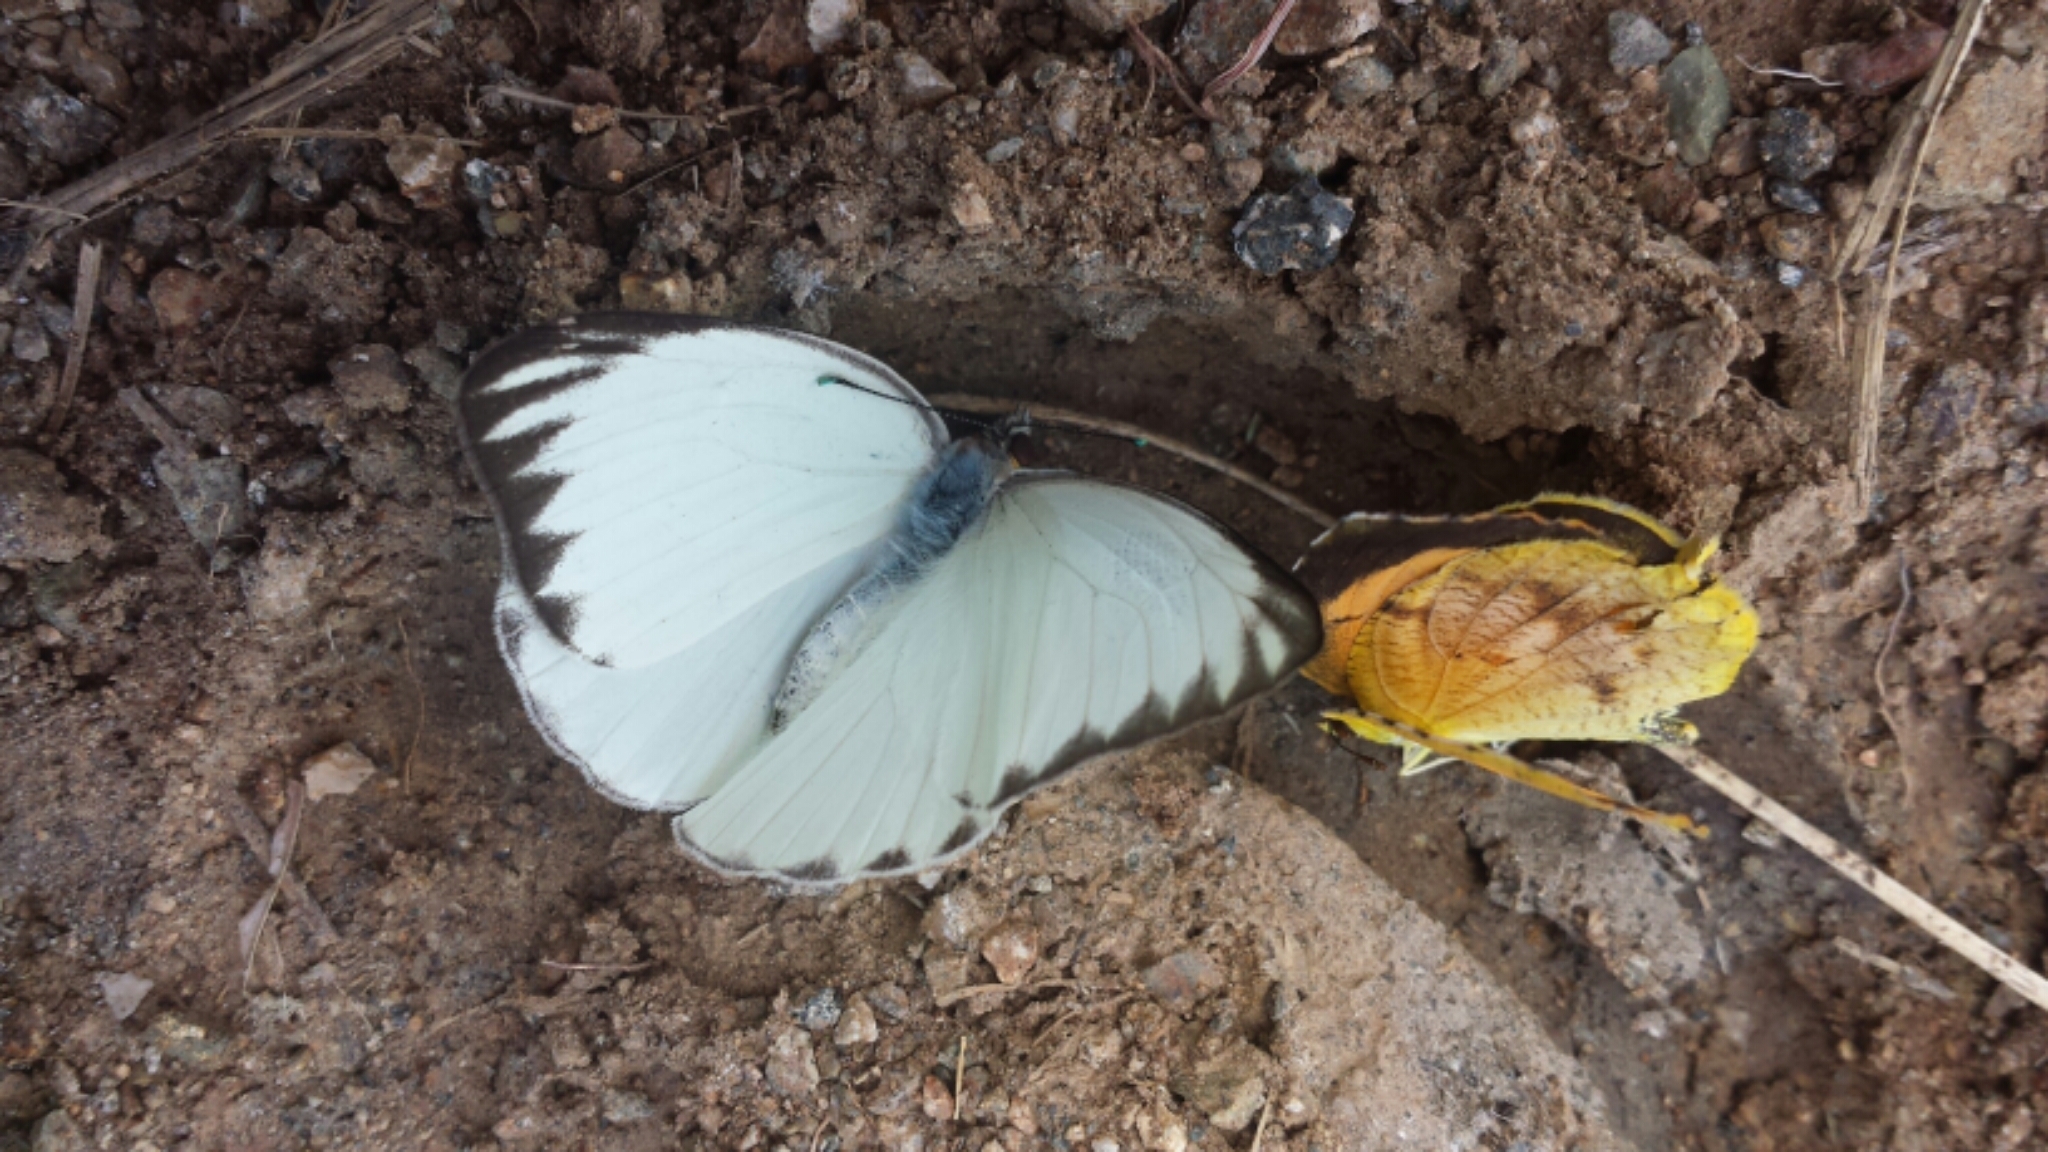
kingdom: Animalia
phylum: Arthropoda
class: Insecta
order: Lepidoptera
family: Pieridae
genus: Ascia
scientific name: Ascia monuste
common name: Great southern white
